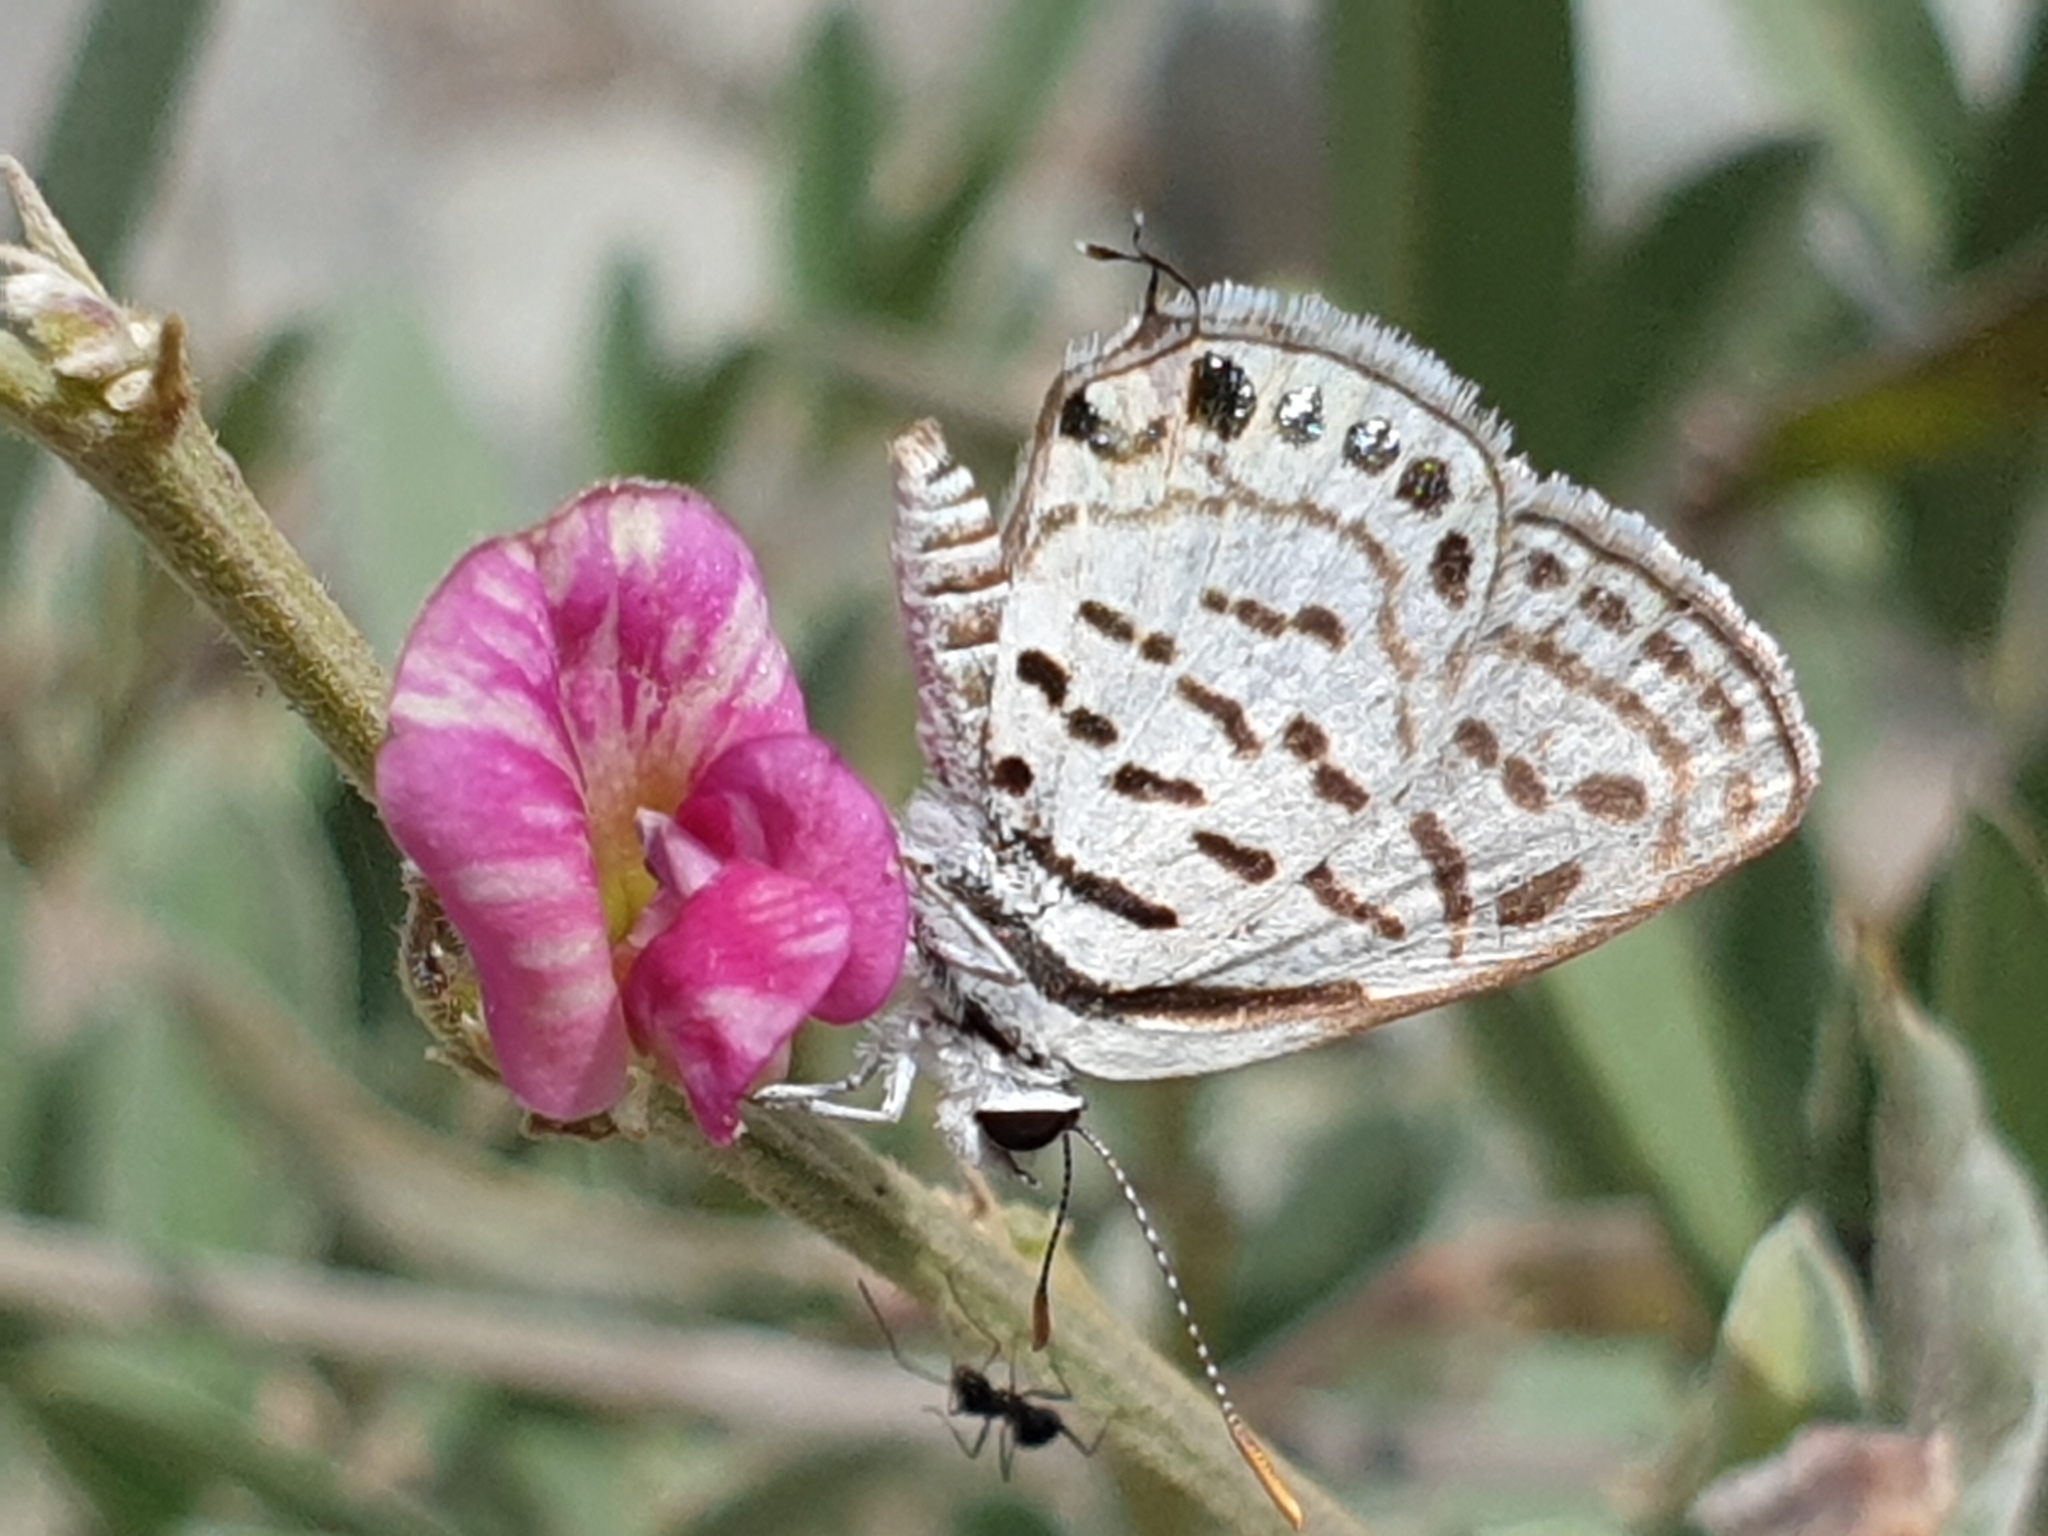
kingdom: Animalia
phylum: Arthropoda
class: Insecta
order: Lepidoptera
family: Lycaenidae
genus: Tarucus
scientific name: Tarucus rosacea
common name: Mediterranean pierrot
